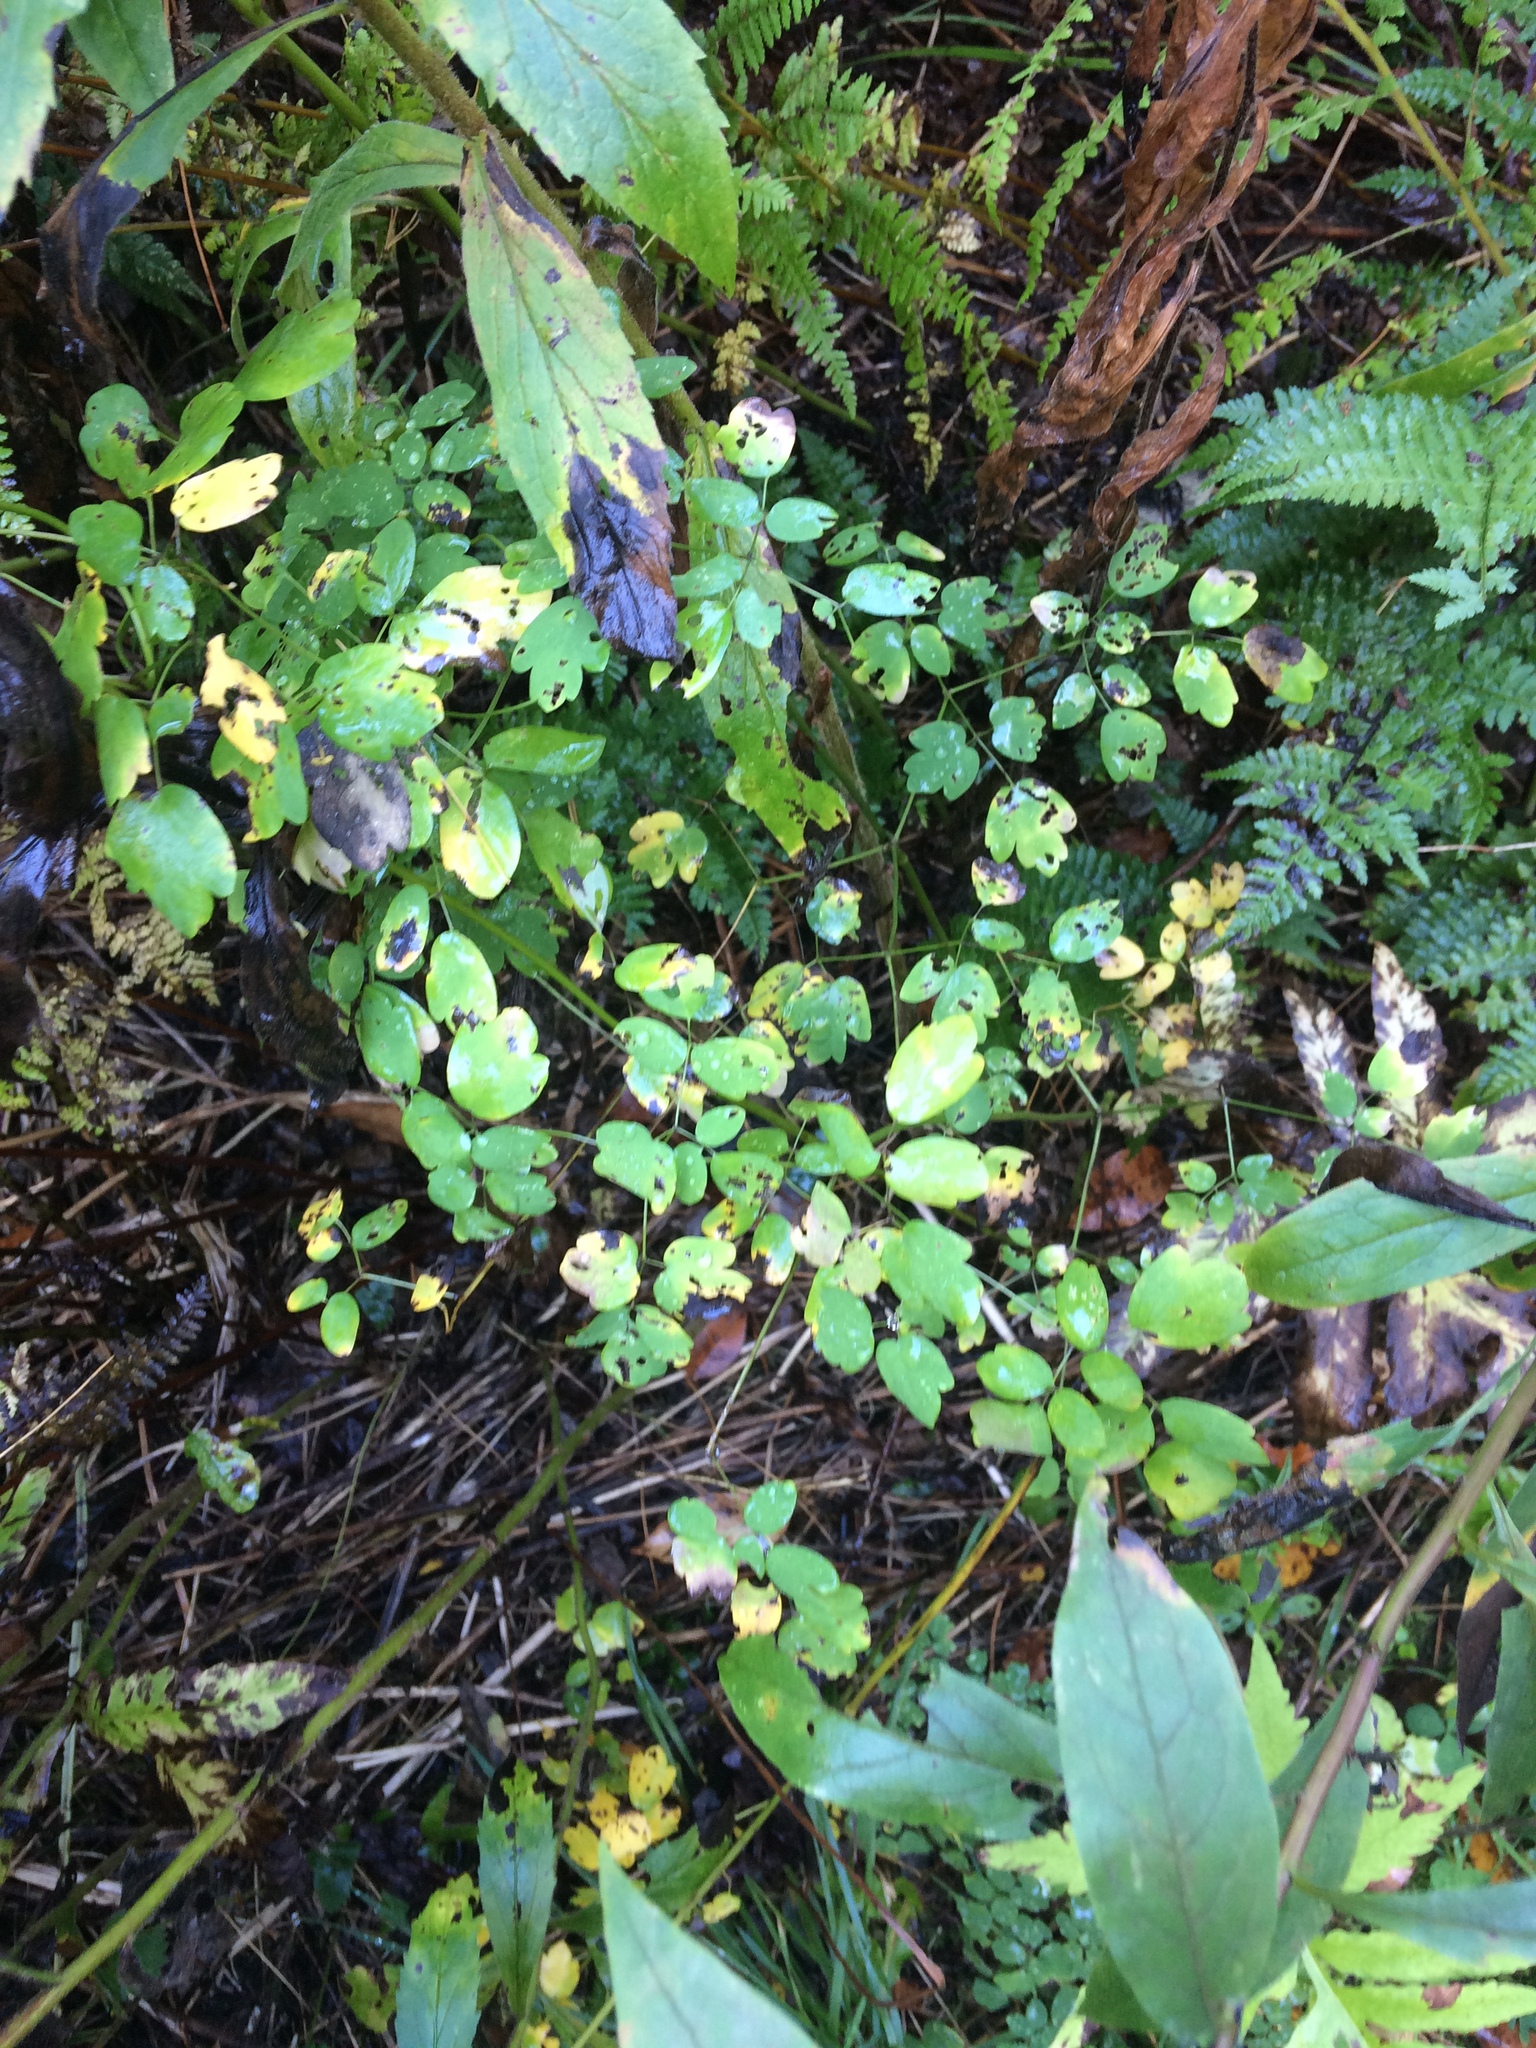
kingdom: Plantae
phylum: Tracheophyta
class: Magnoliopsida
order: Ranunculales
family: Ranunculaceae
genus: Thalictrum
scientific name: Thalictrum pubescens
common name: King-of-the-meadow
